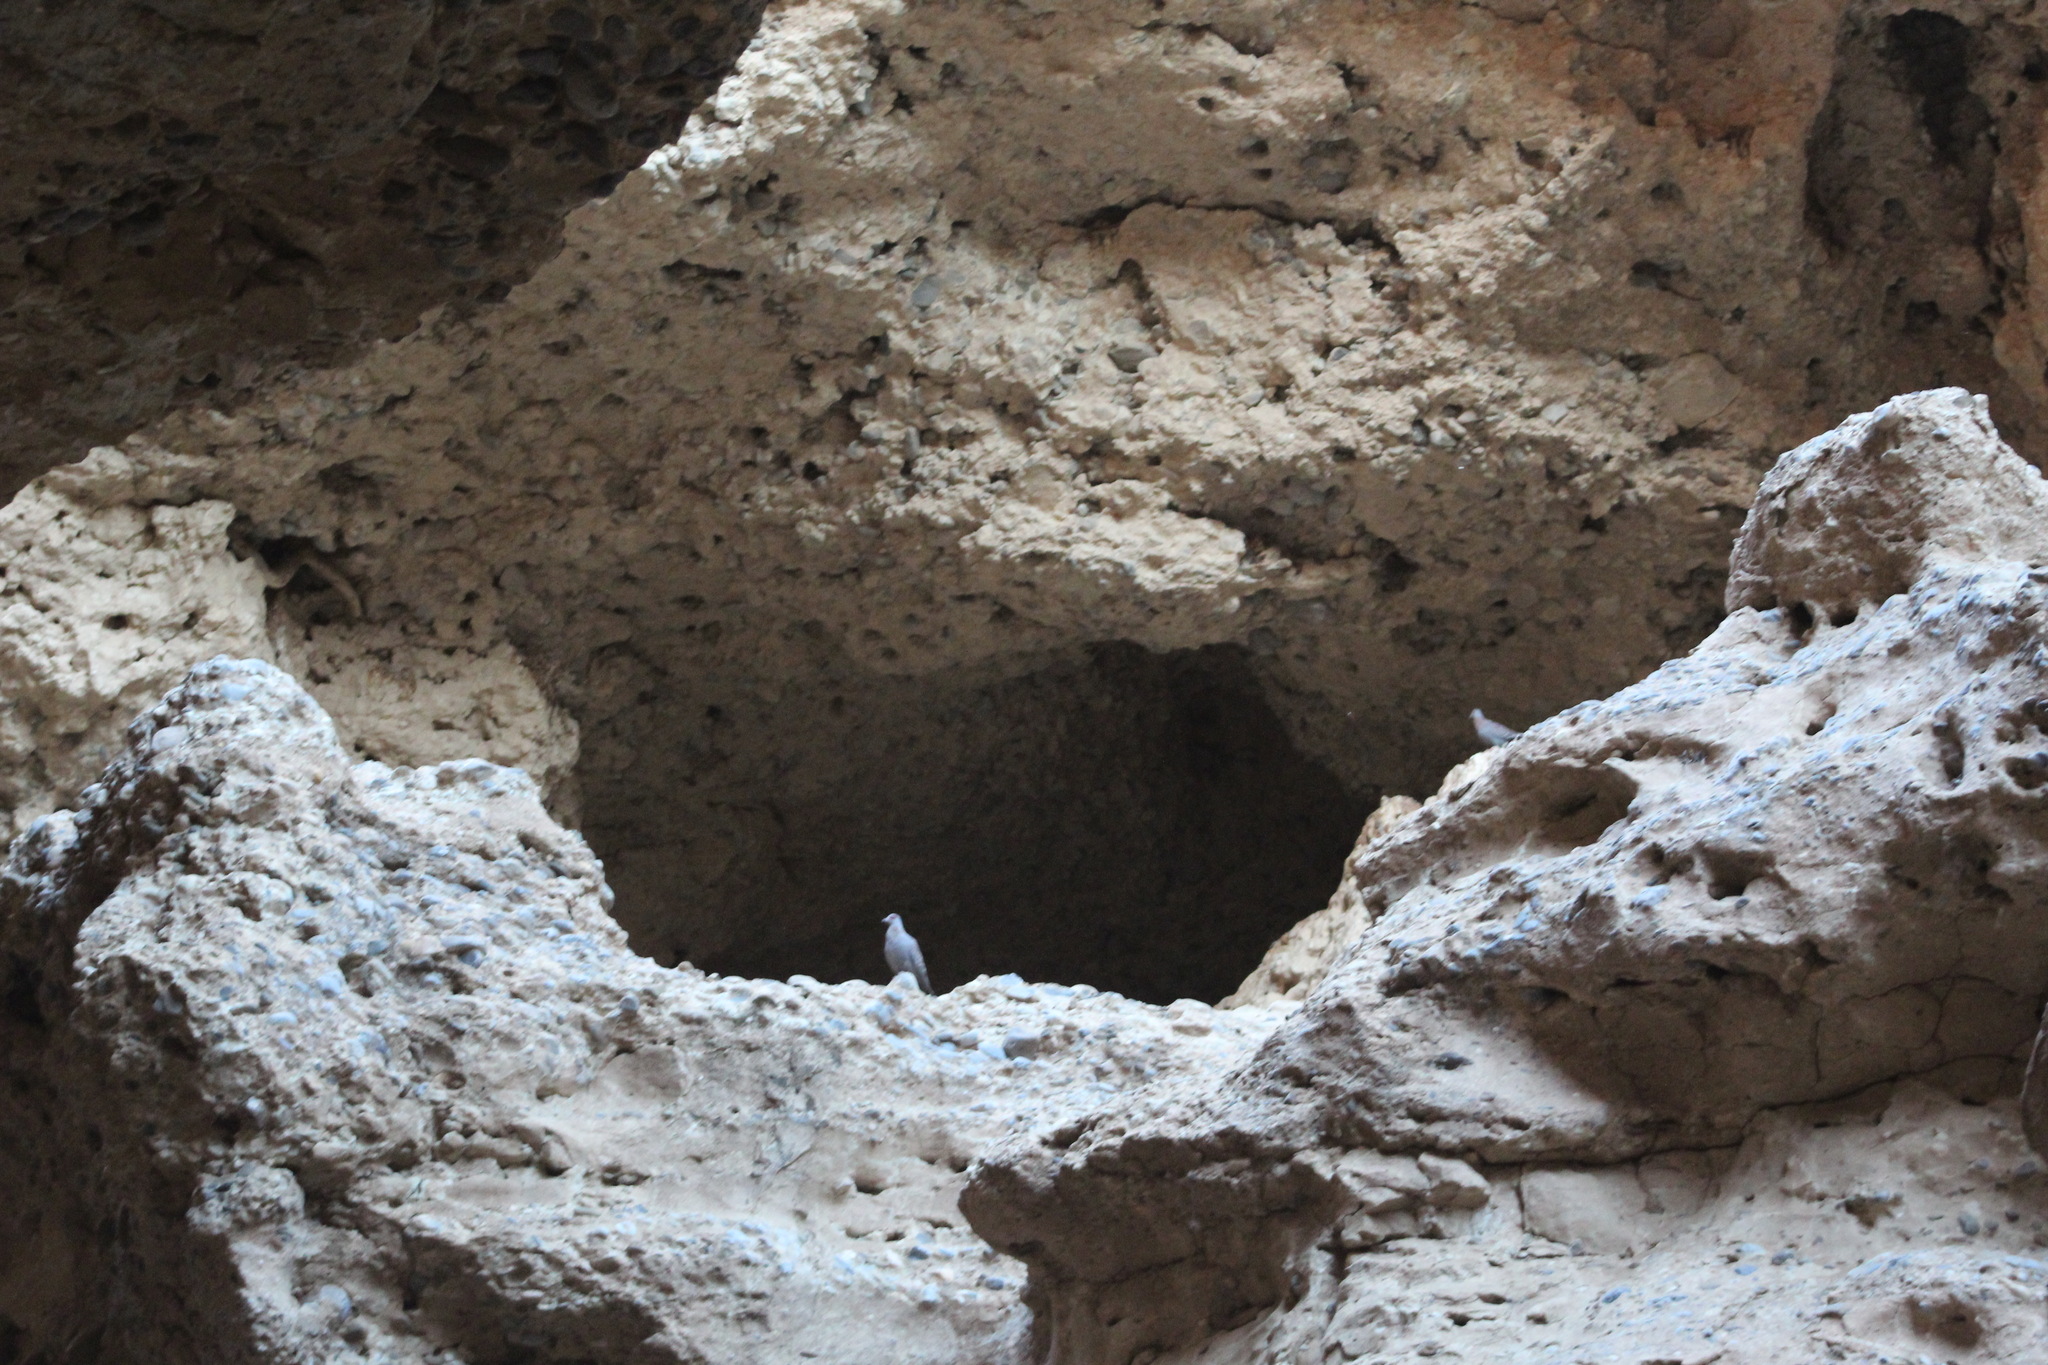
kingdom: Animalia
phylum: Chordata
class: Aves
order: Columbiformes
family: Columbidae
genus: Columba
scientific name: Columba guinea
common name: Speckled pigeon
